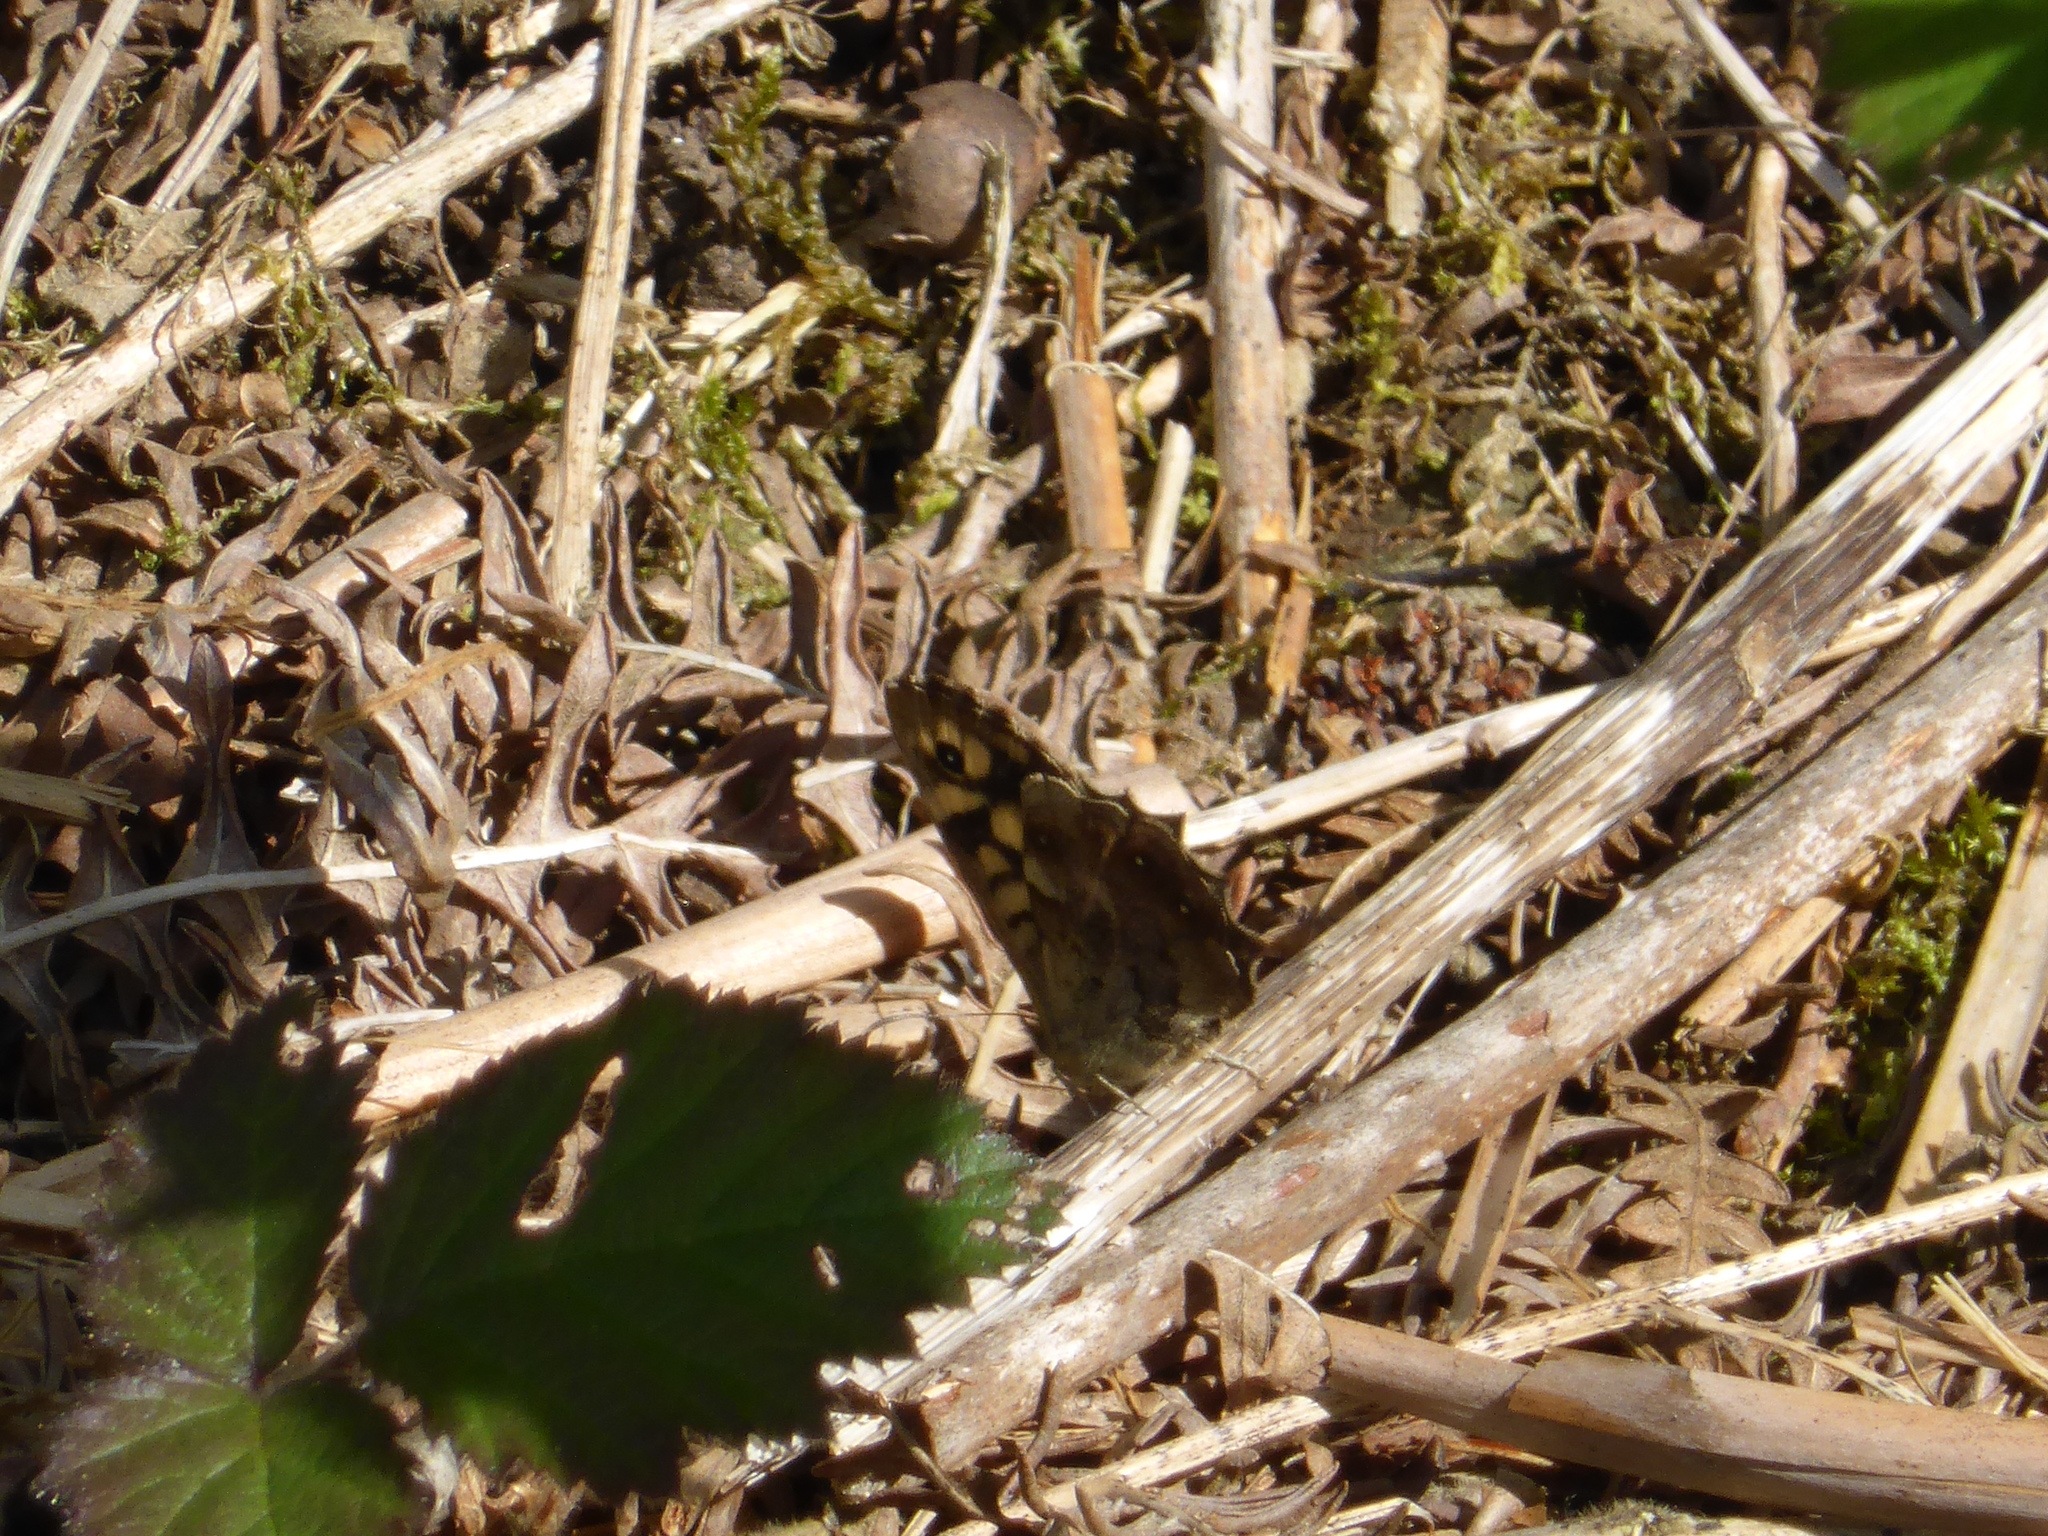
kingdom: Animalia
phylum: Arthropoda
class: Insecta
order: Lepidoptera
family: Nymphalidae
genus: Pararge
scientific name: Pararge aegeria
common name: Speckled wood
